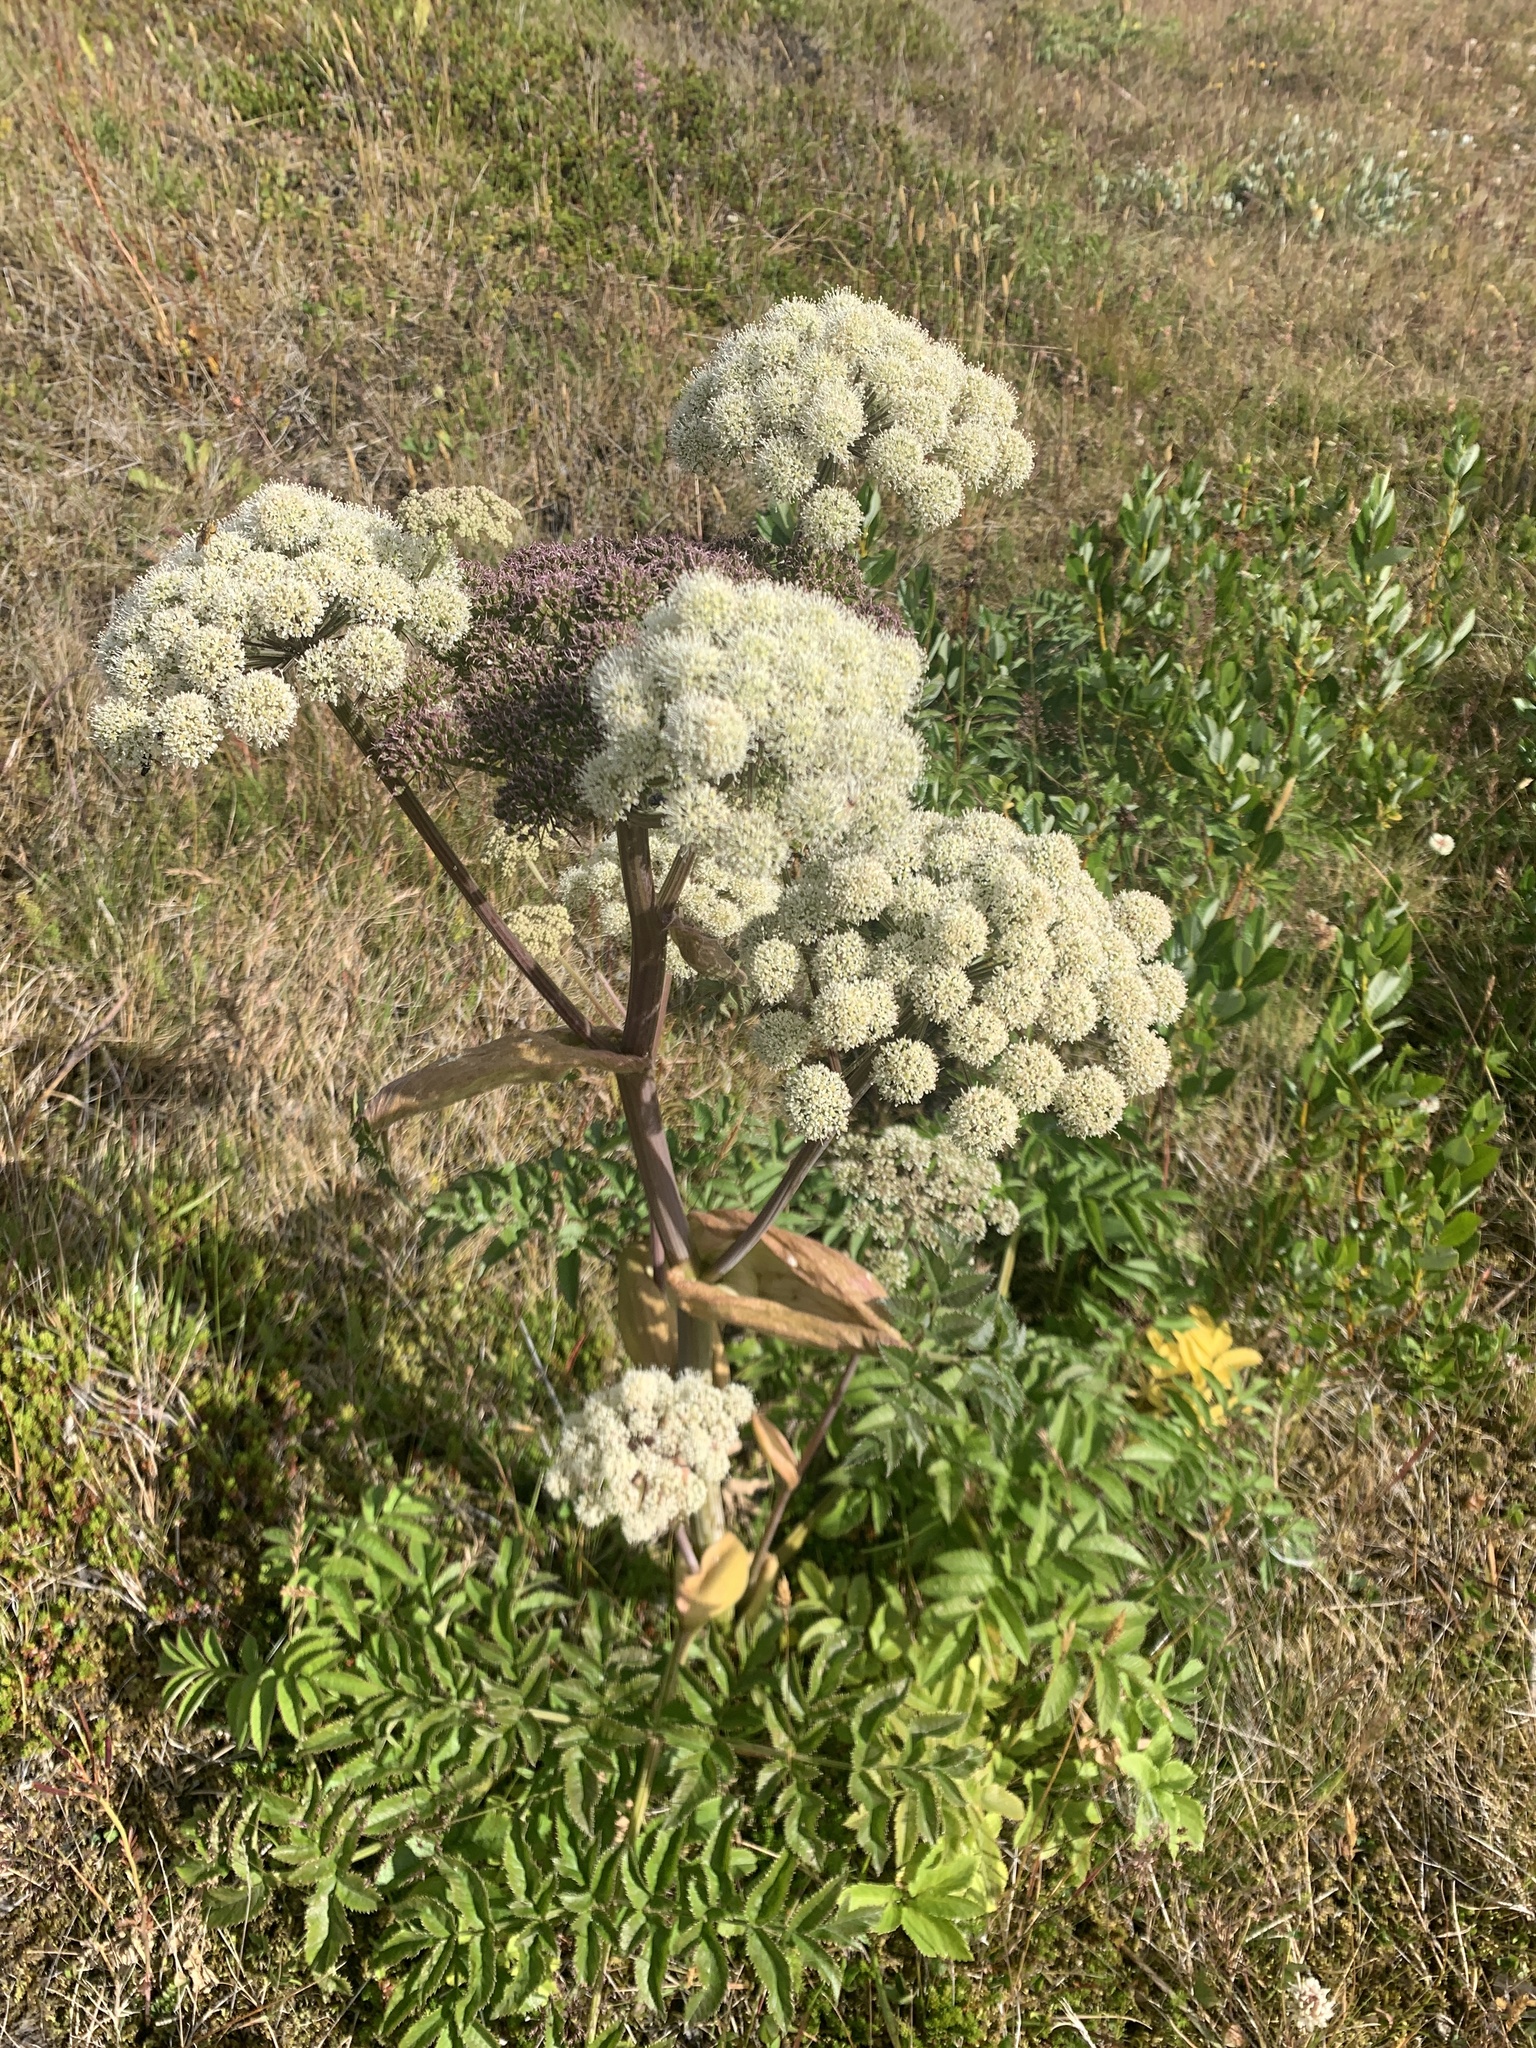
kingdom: Plantae
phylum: Tracheophyta
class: Magnoliopsida
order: Apiales
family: Apiaceae
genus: Angelica
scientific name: Angelica archangelica
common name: Garden angelica
